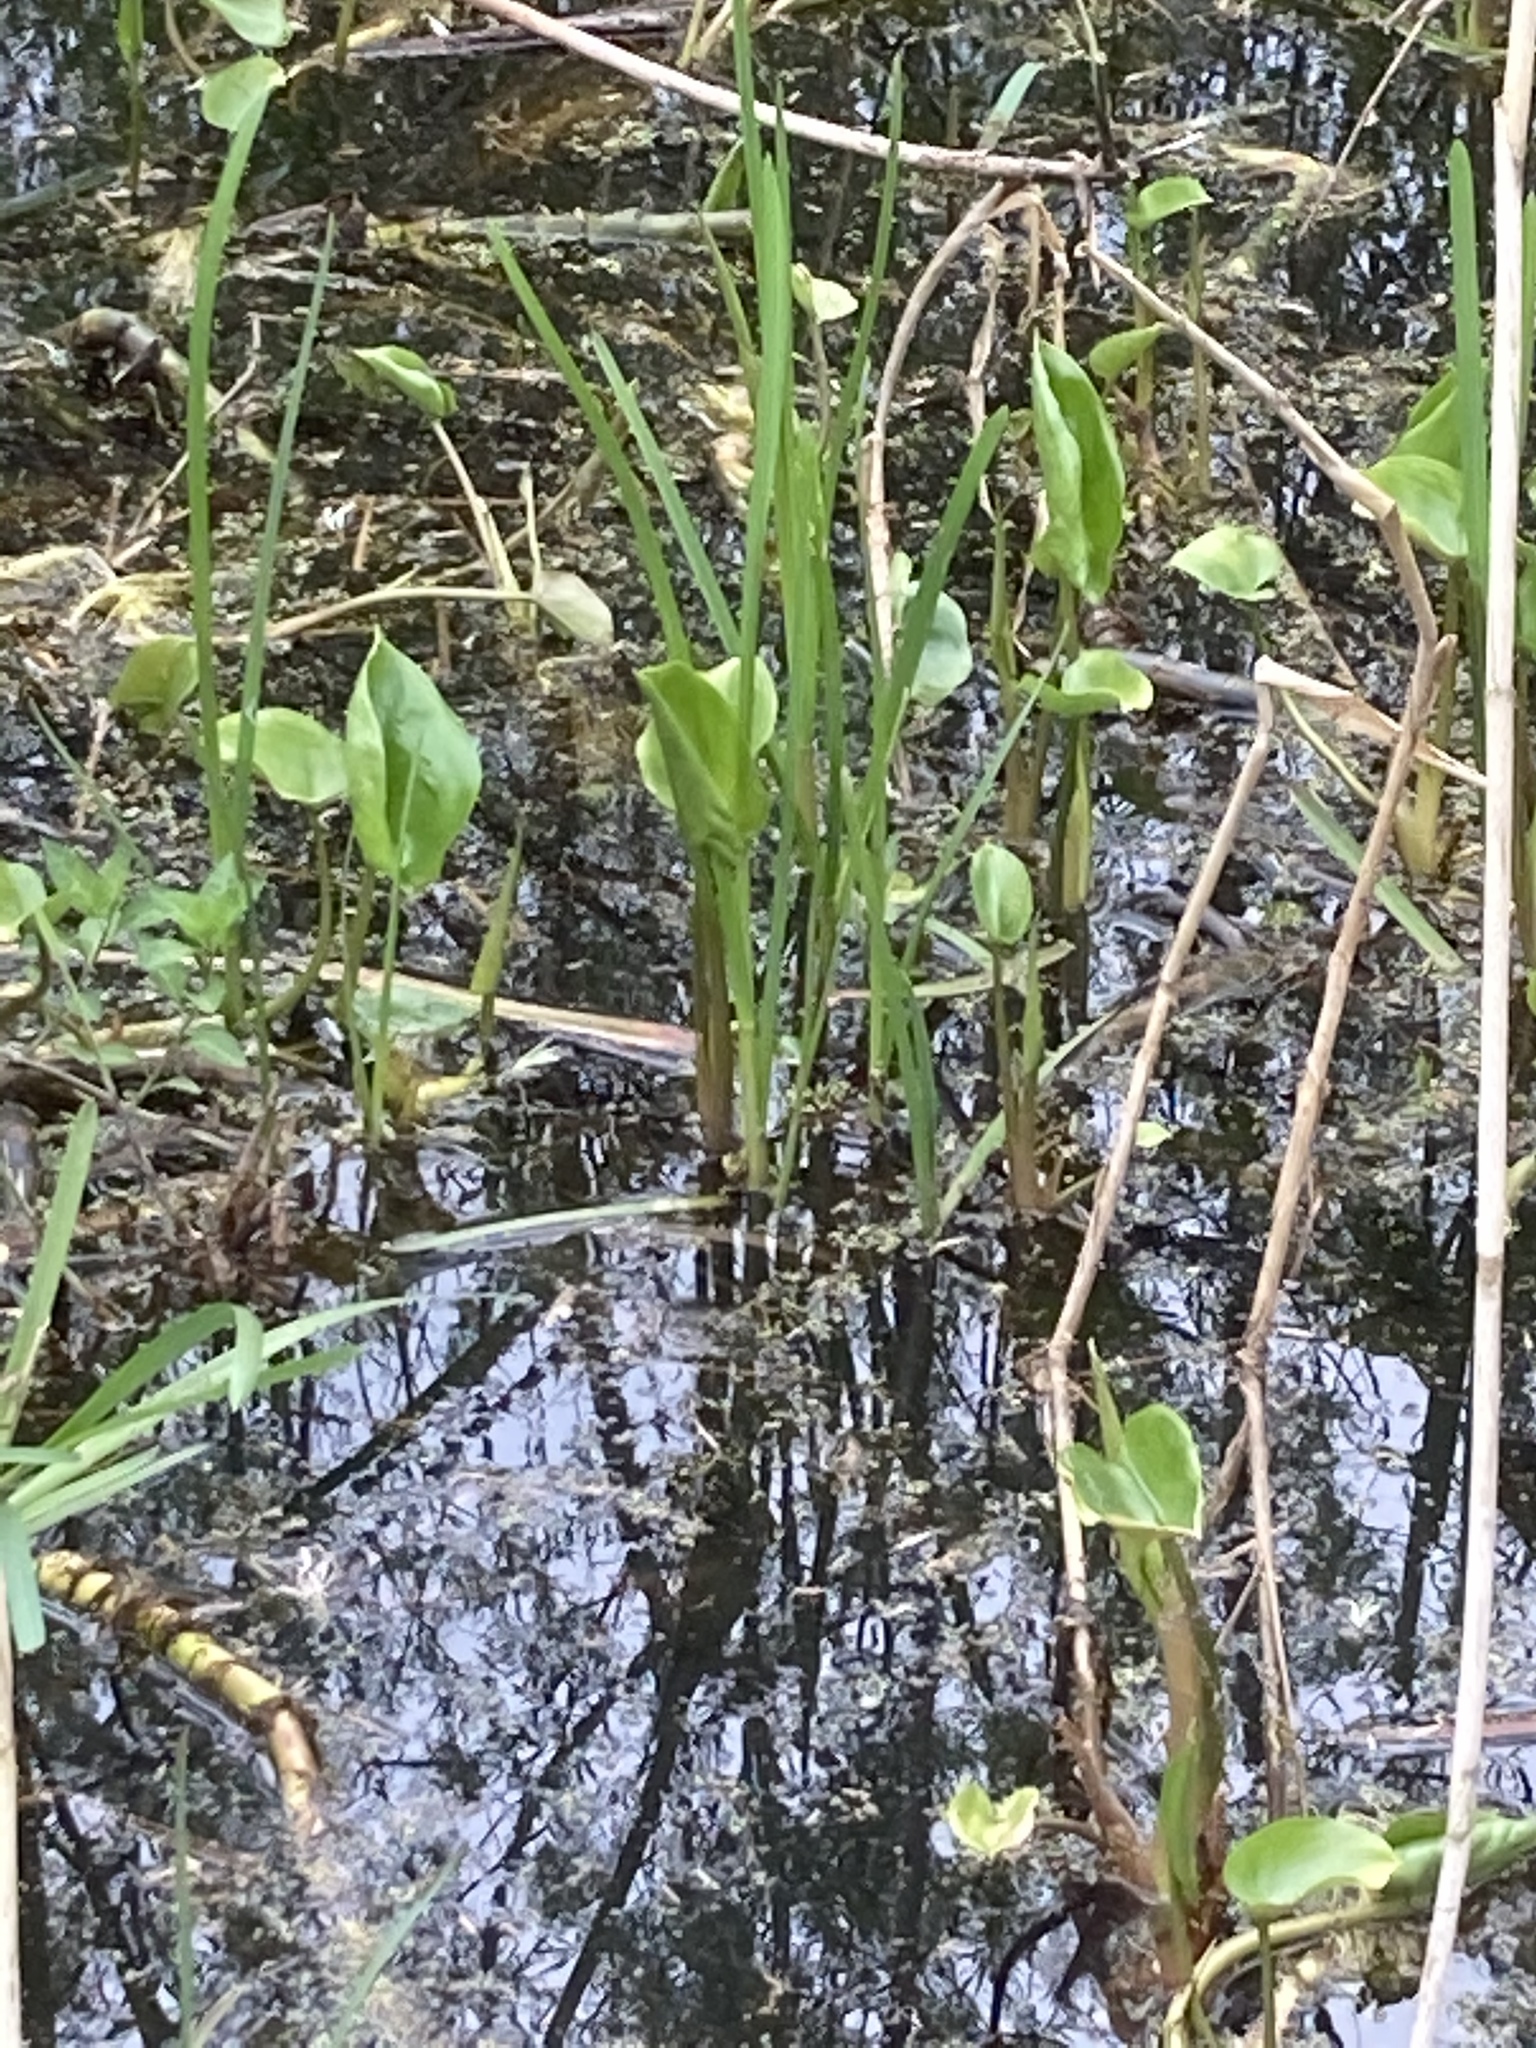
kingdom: Plantae
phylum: Tracheophyta
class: Liliopsida
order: Alismatales
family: Araceae
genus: Calla
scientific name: Calla palustris
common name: Bog arum
